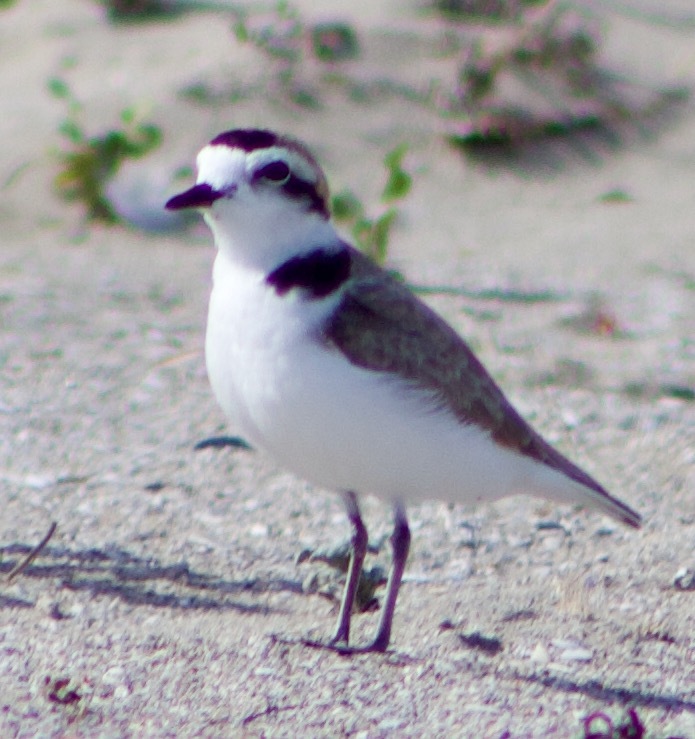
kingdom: Animalia
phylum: Chordata
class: Aves
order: Charadriiformes
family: Charadriidae
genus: Anarhynchus
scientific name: Anarhynchus
